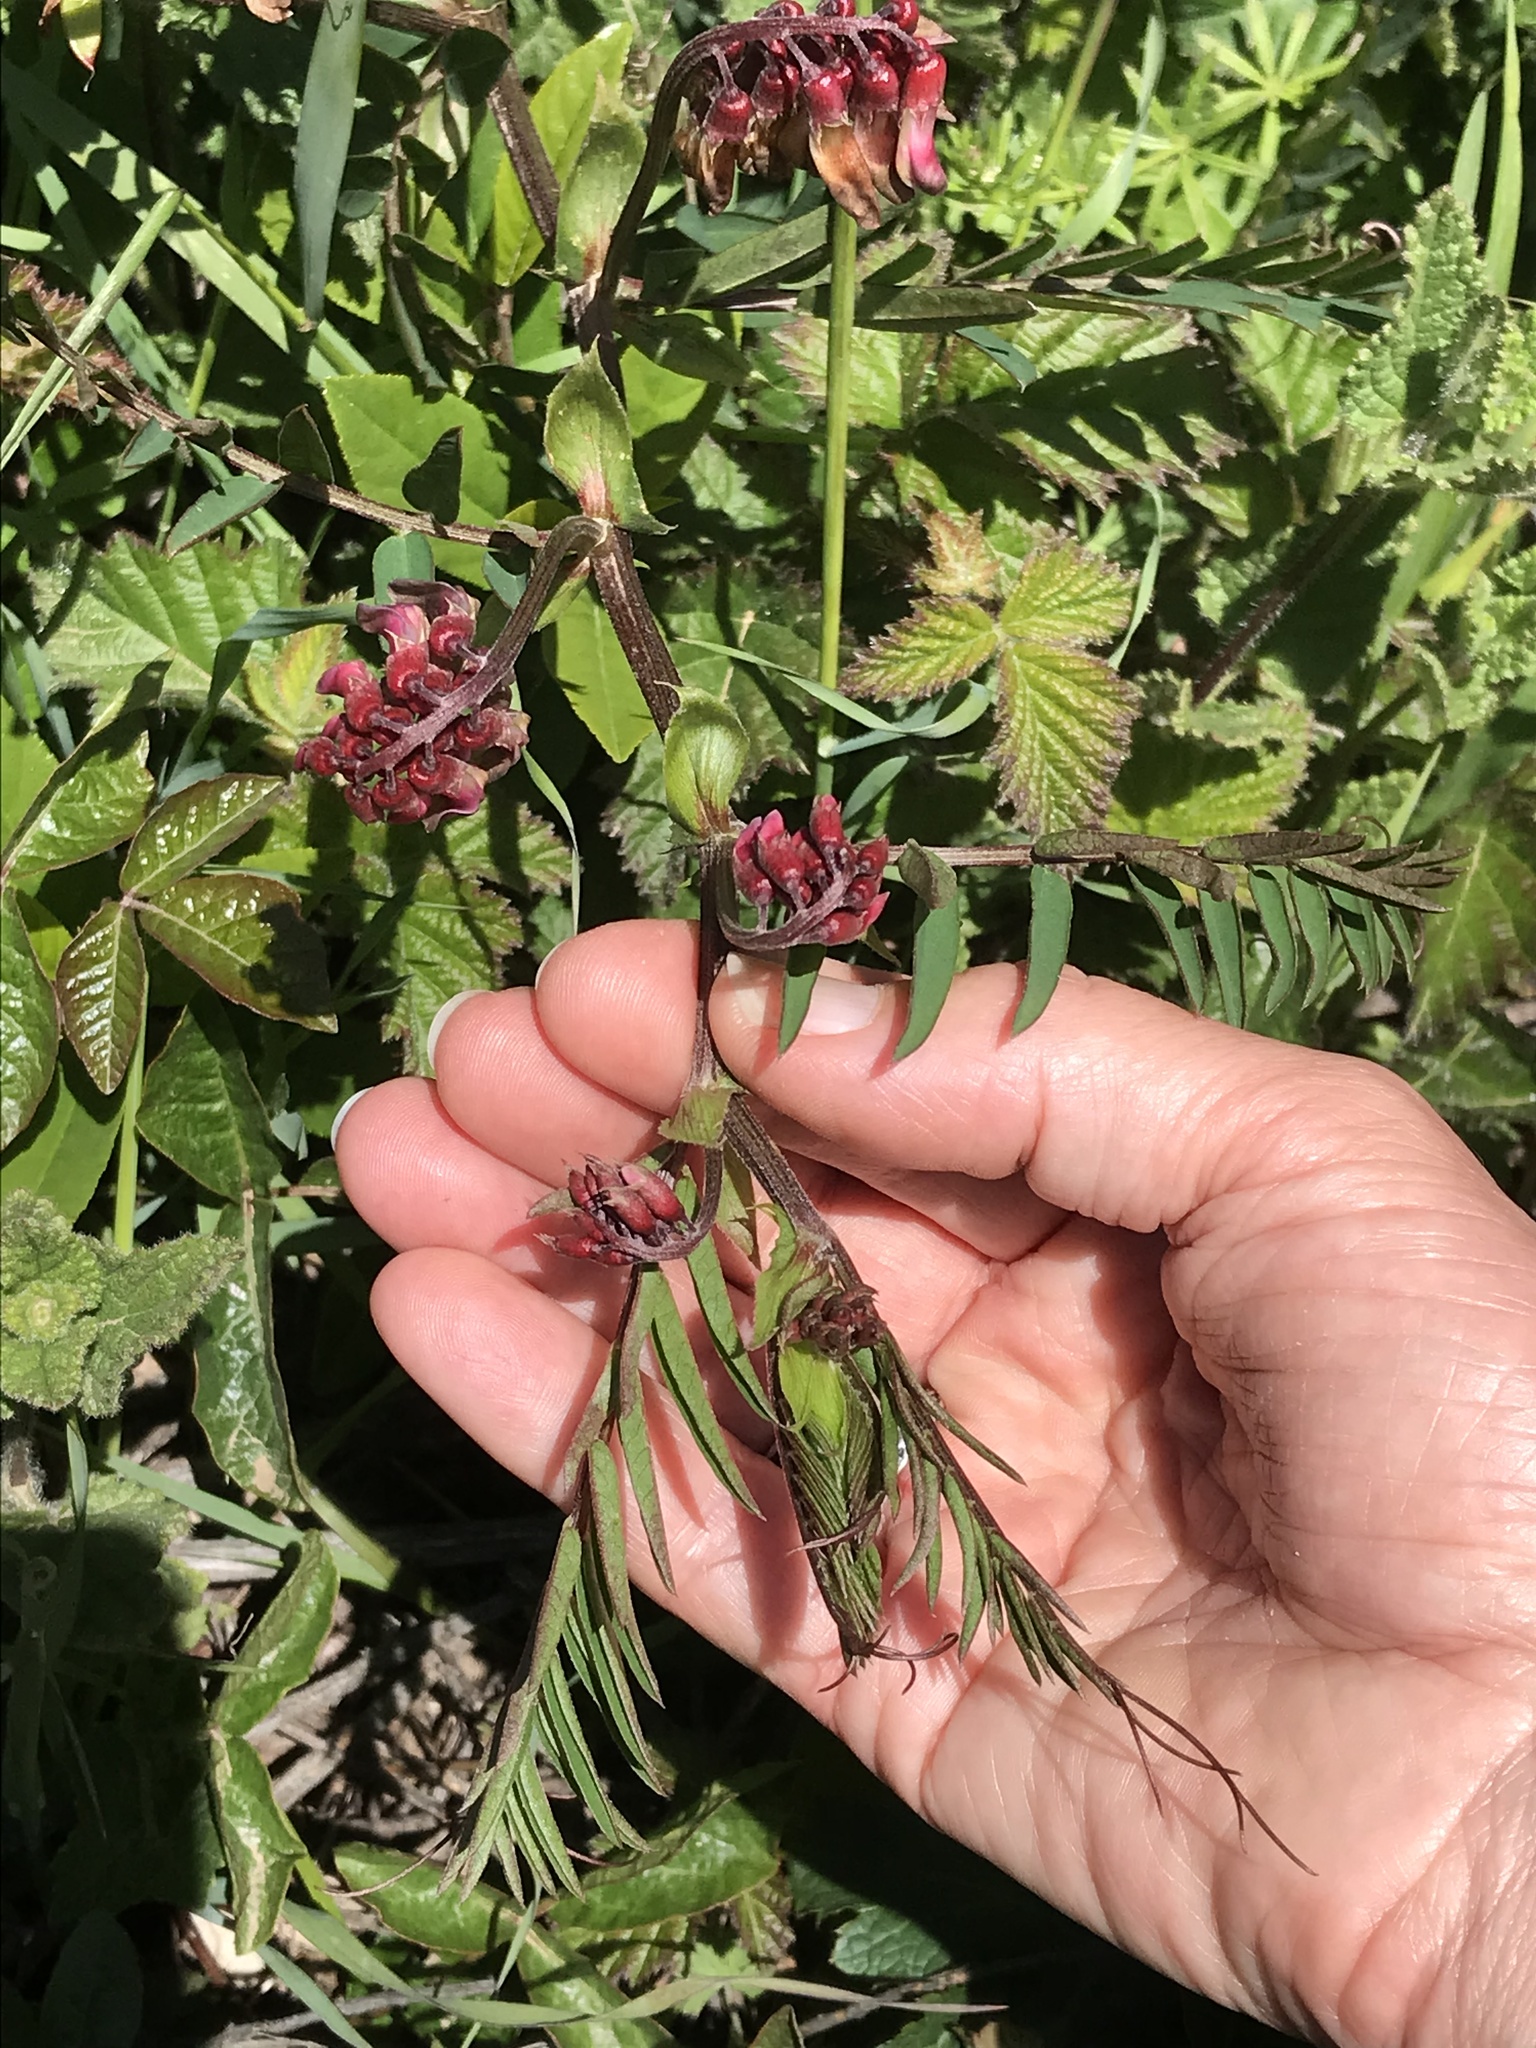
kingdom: Plantae
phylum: Tracheophyta
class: Magnoliopsida
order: Fabales
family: Fabaceae
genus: Vicia
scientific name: Vicia
